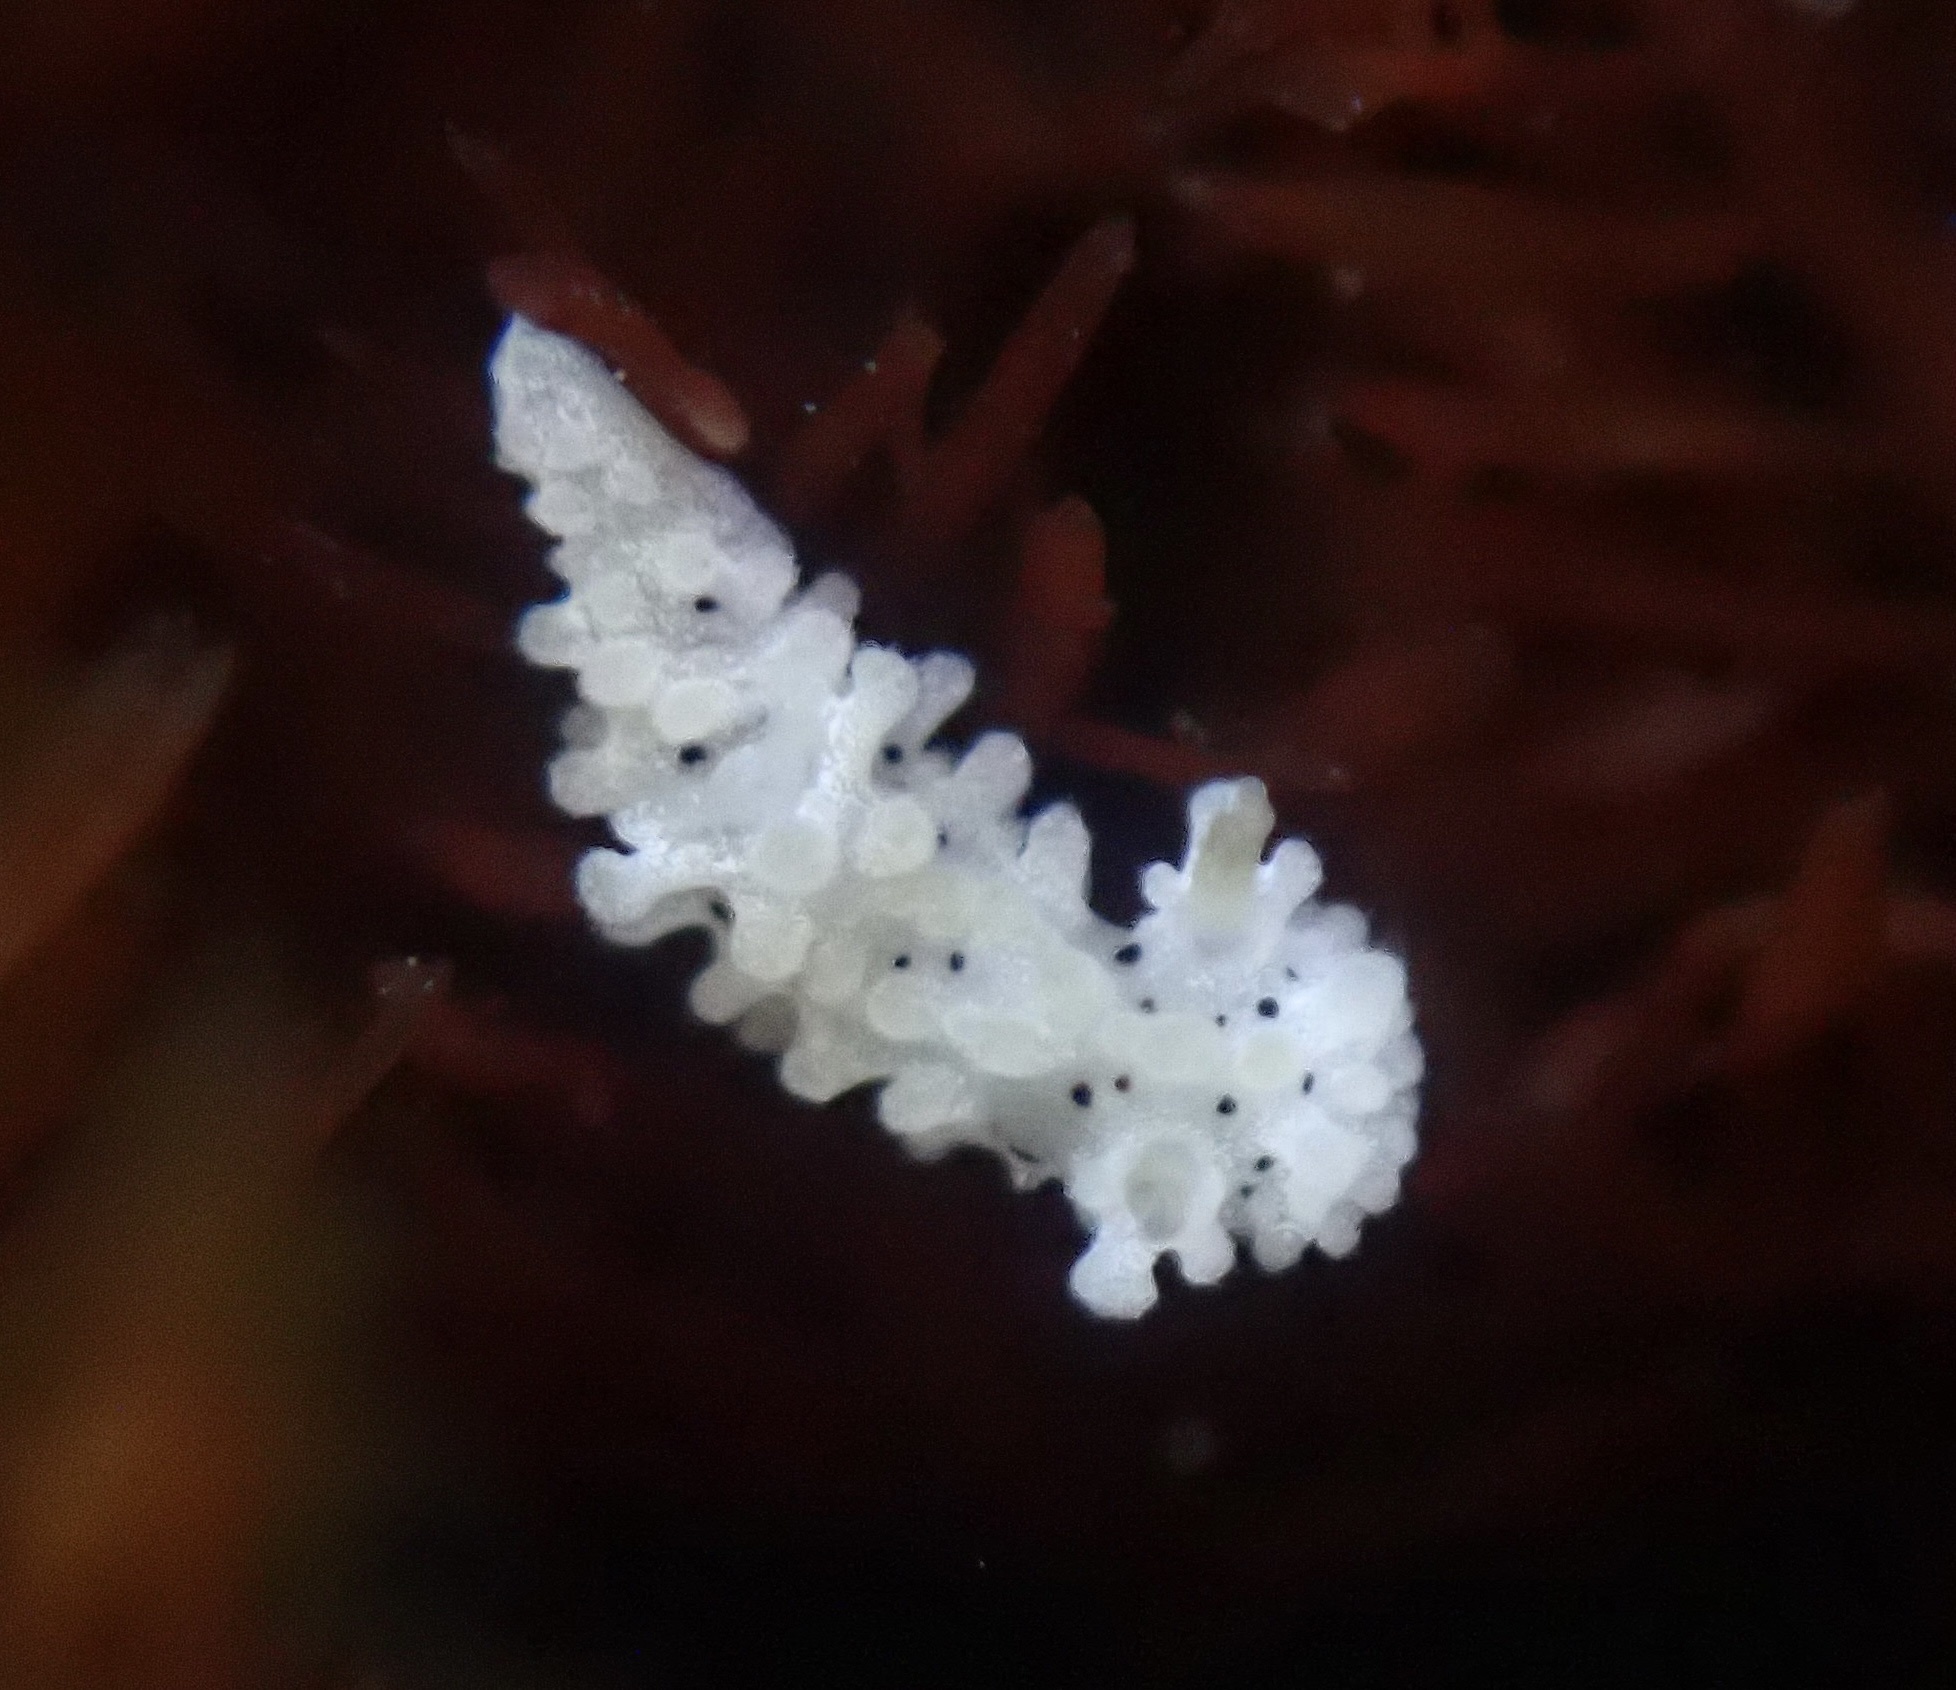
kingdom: Animalia
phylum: Mollusca
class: Gastropoda
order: Nudibranchia
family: Aegiridae
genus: Aegires
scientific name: Aegires albopunctatus
